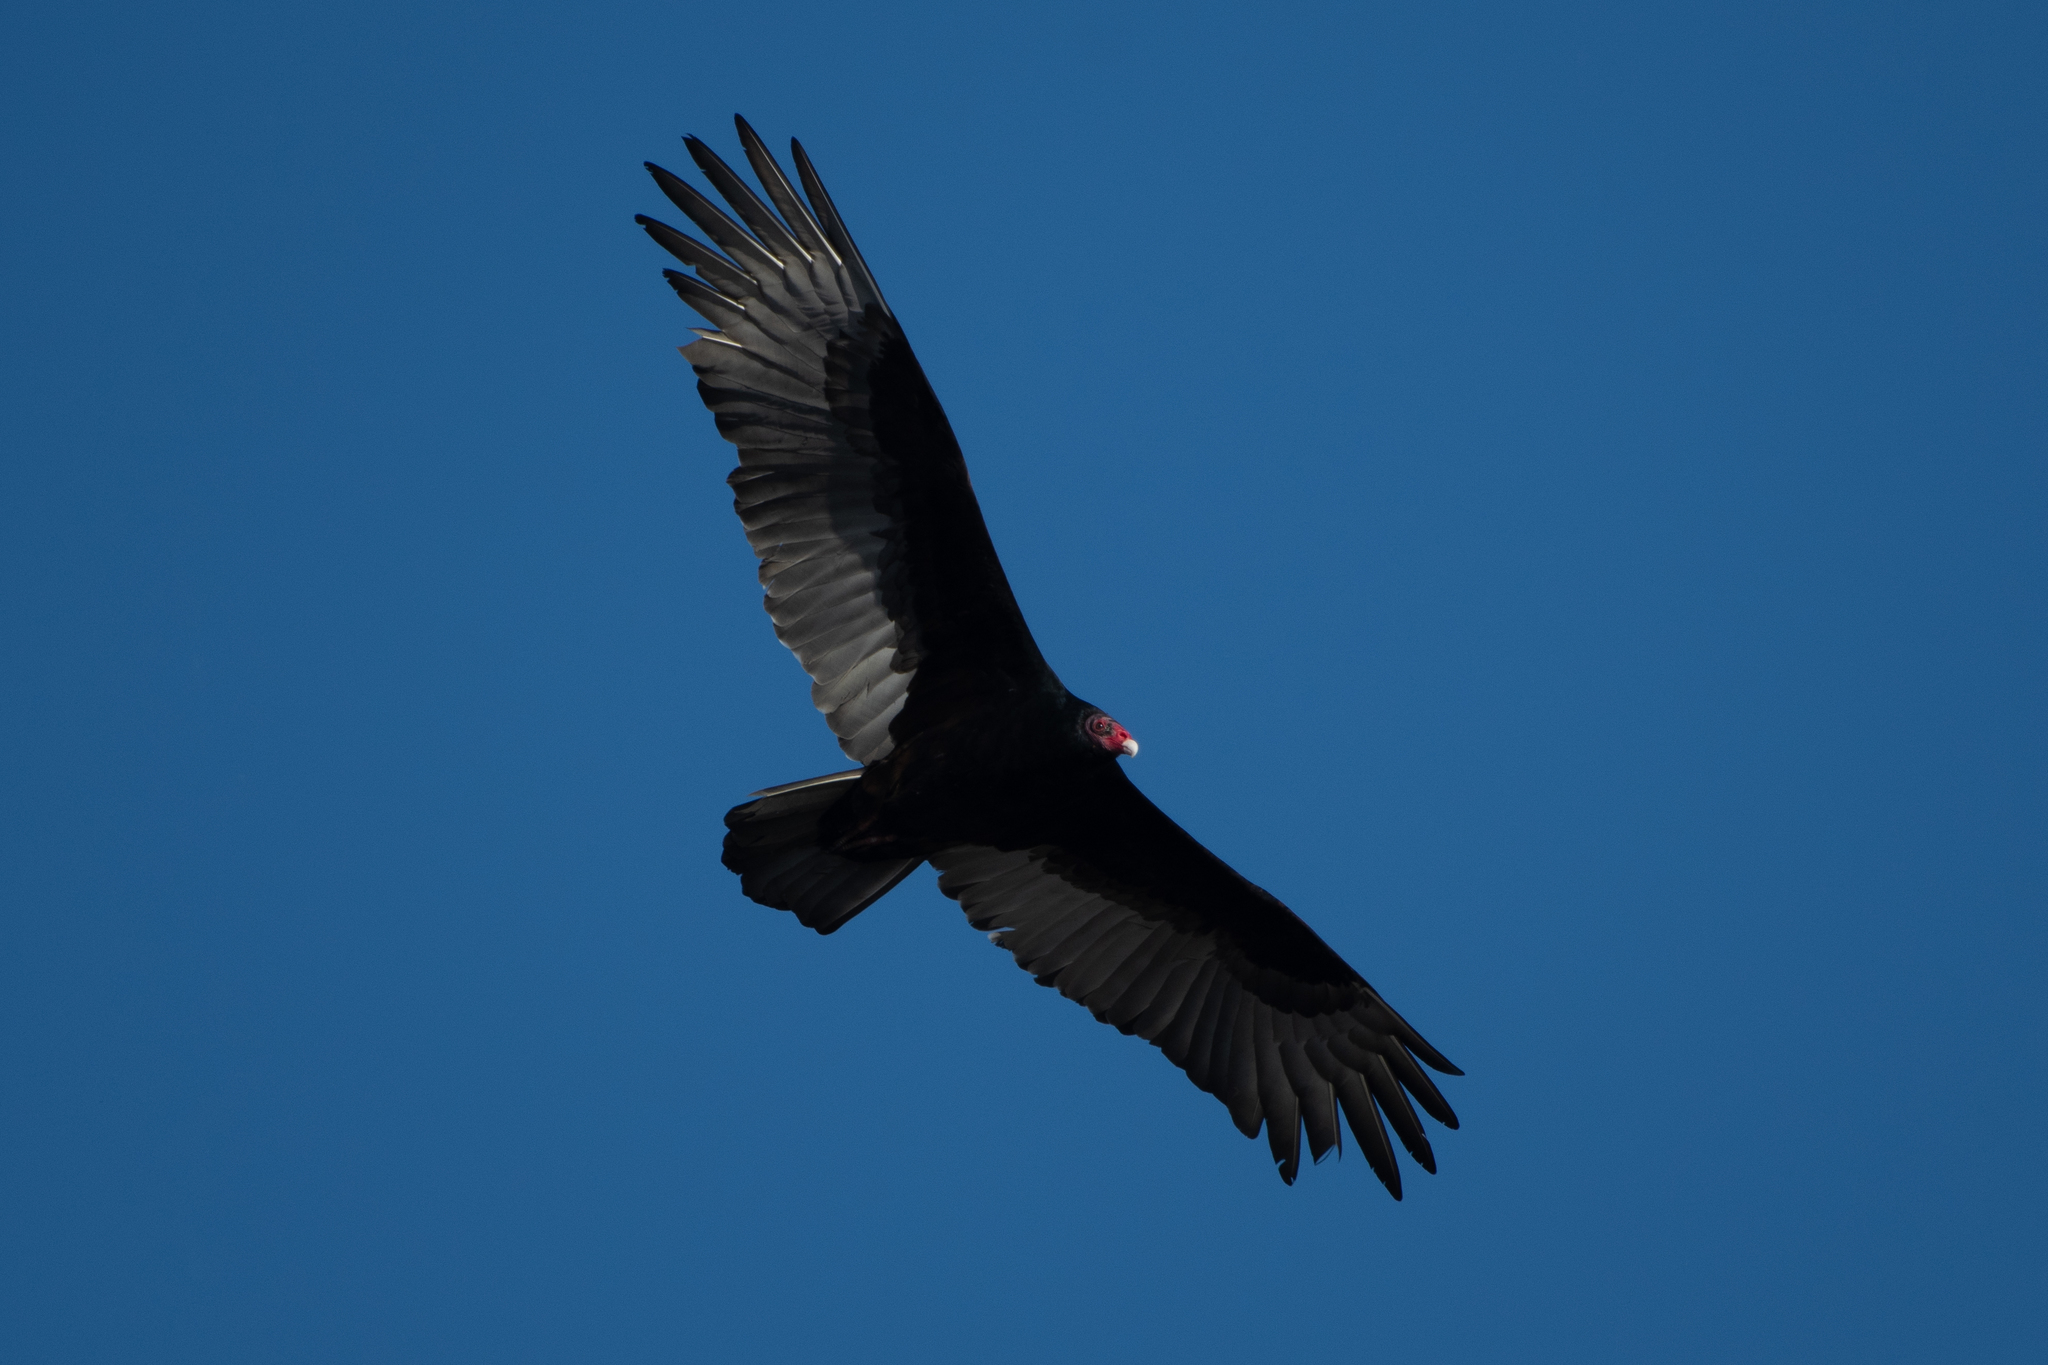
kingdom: Animalia
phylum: Chordata
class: Aves
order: Accipitriformes
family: Cathartidae
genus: Cathartes
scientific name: Cathartes aura
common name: Turkey vulture
